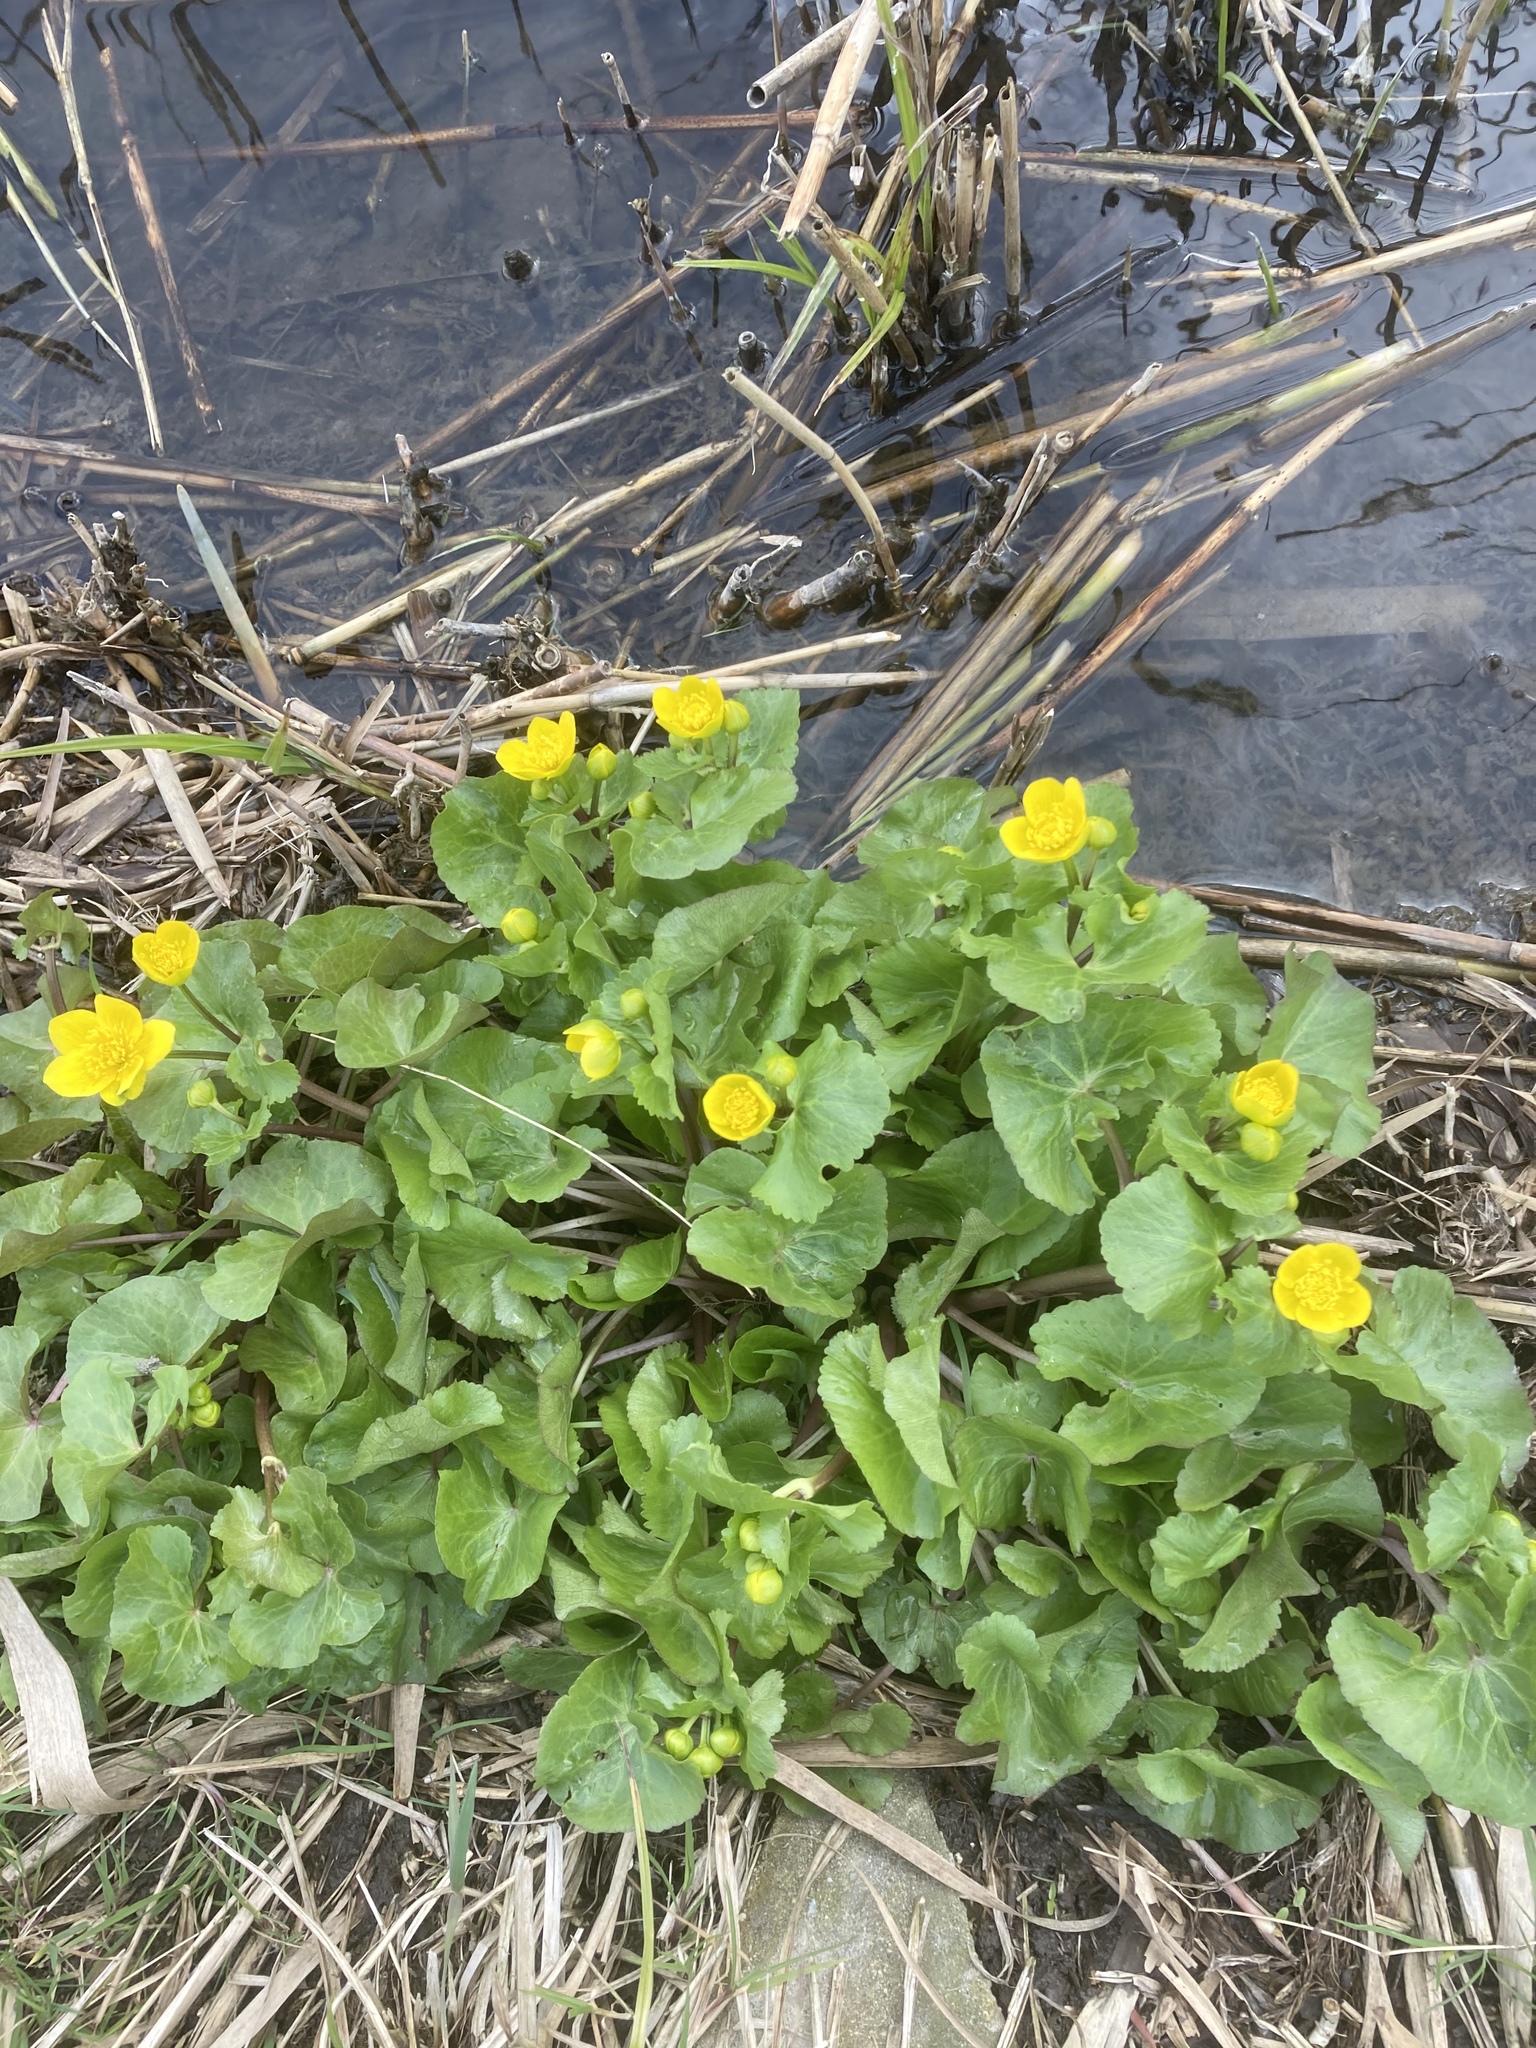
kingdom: Plantae
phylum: Tracheophyta
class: Magnoliopsida
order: Ranunculales
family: Ranunculaceae
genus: Caltha
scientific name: Caltha palustris
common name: Marsh marigold
